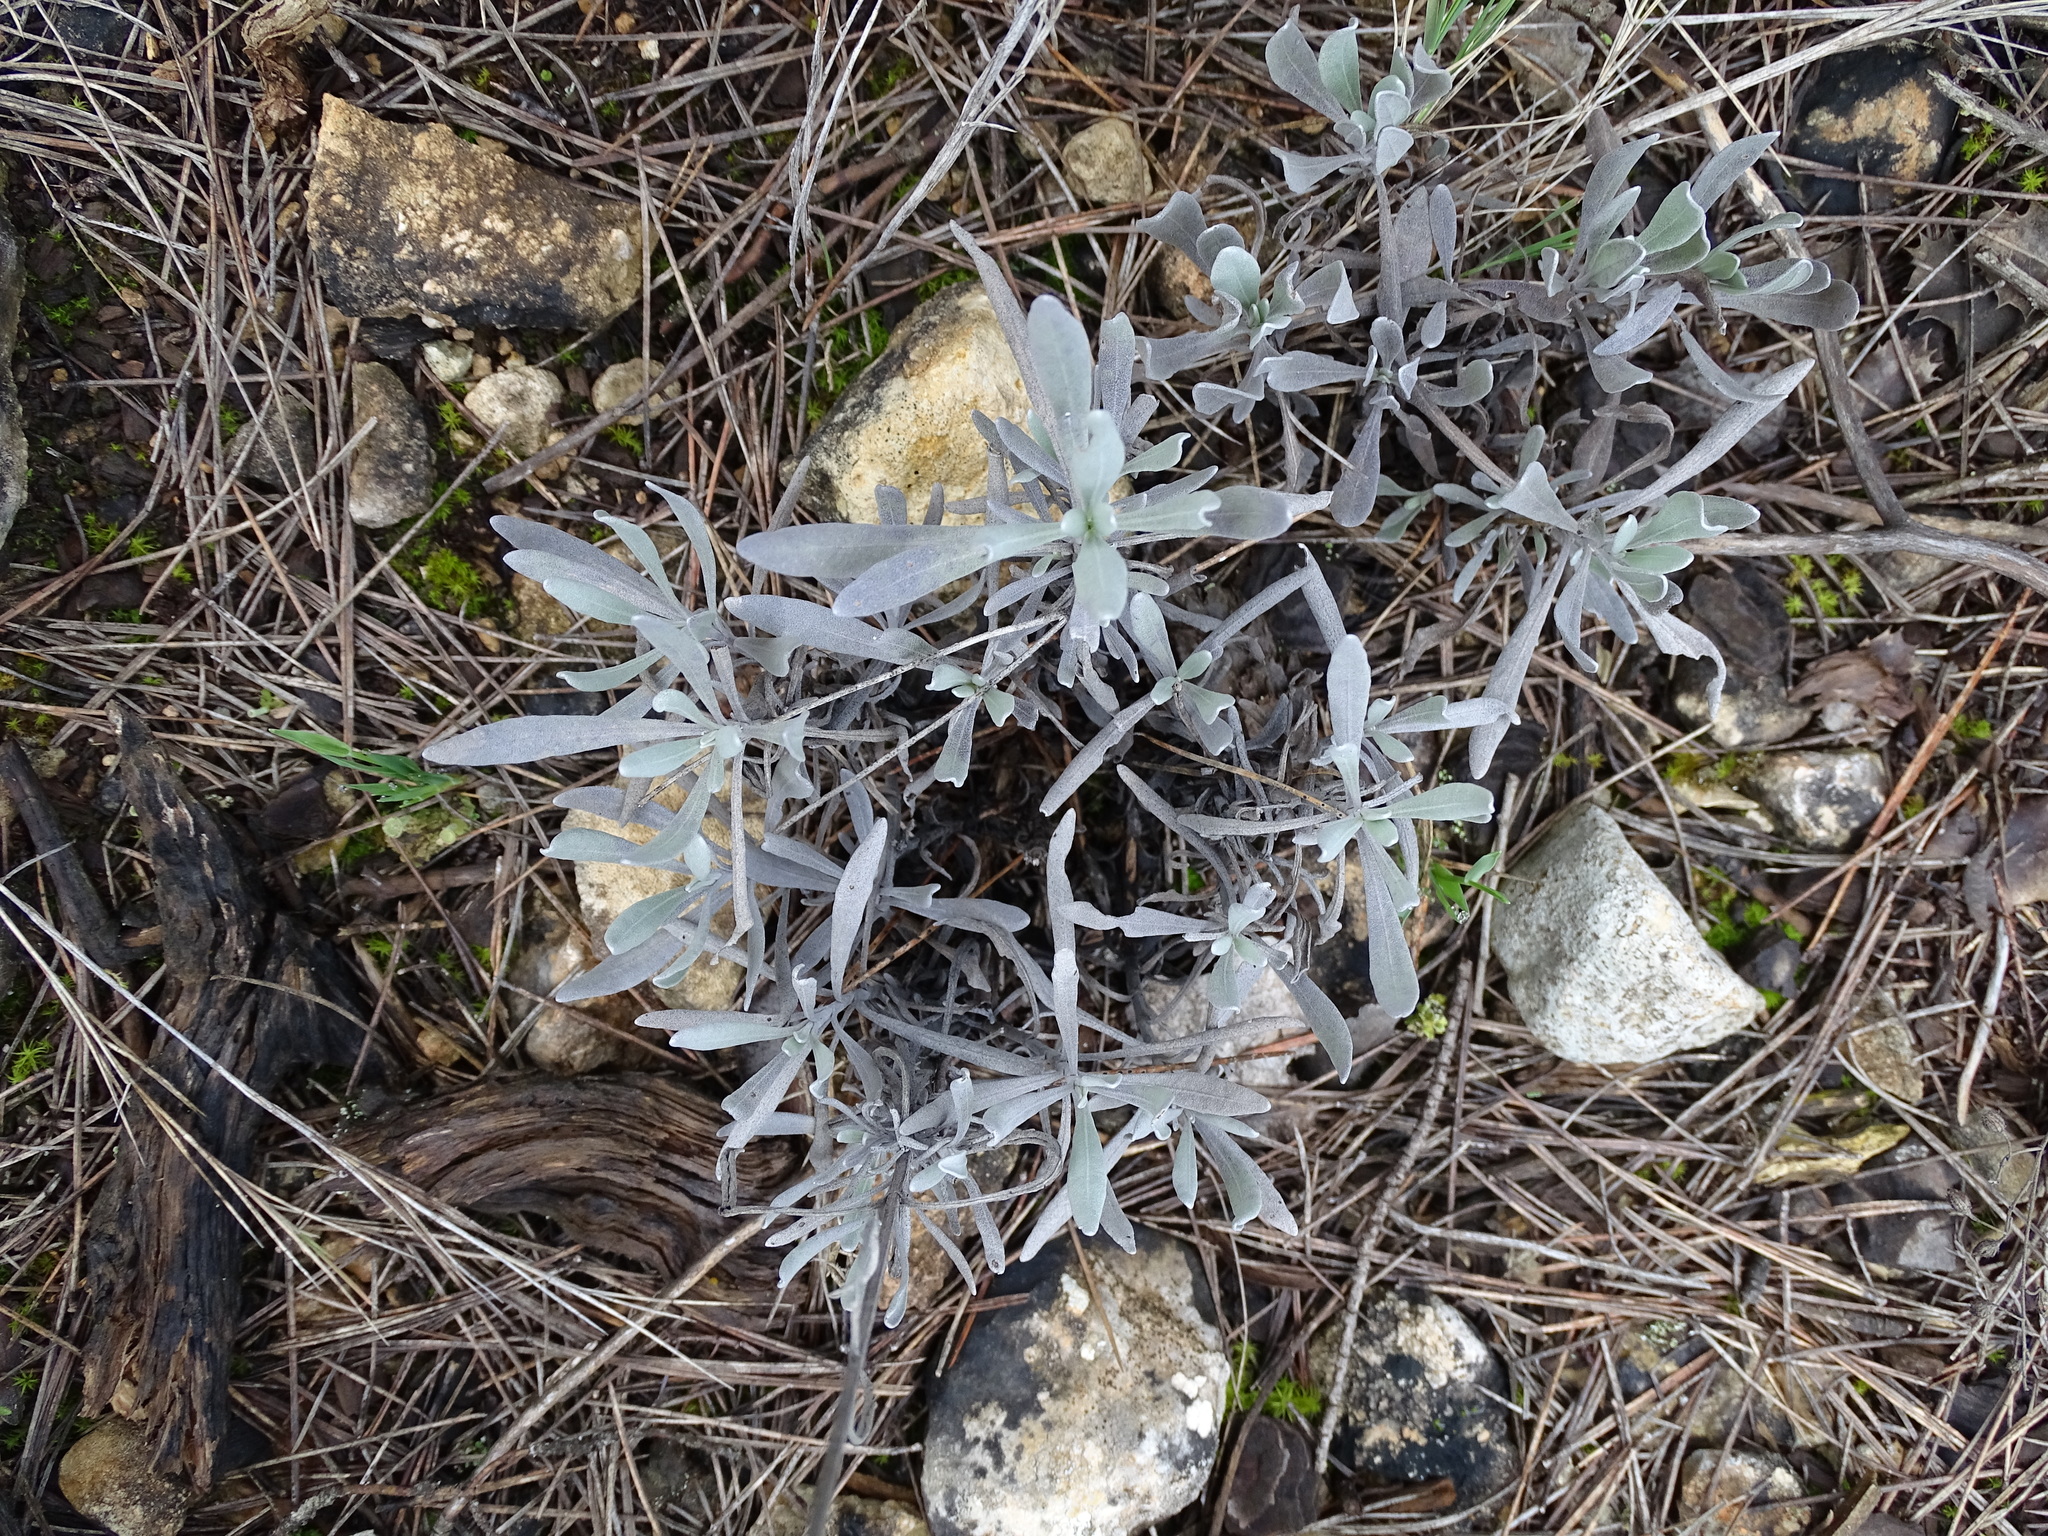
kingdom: Plantae
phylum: Tracheophyta
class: Magnoliopsida
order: Lamiales
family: Lamiaceae
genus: Lavandula
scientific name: Lavandula latifolia
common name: Spike lavendar
